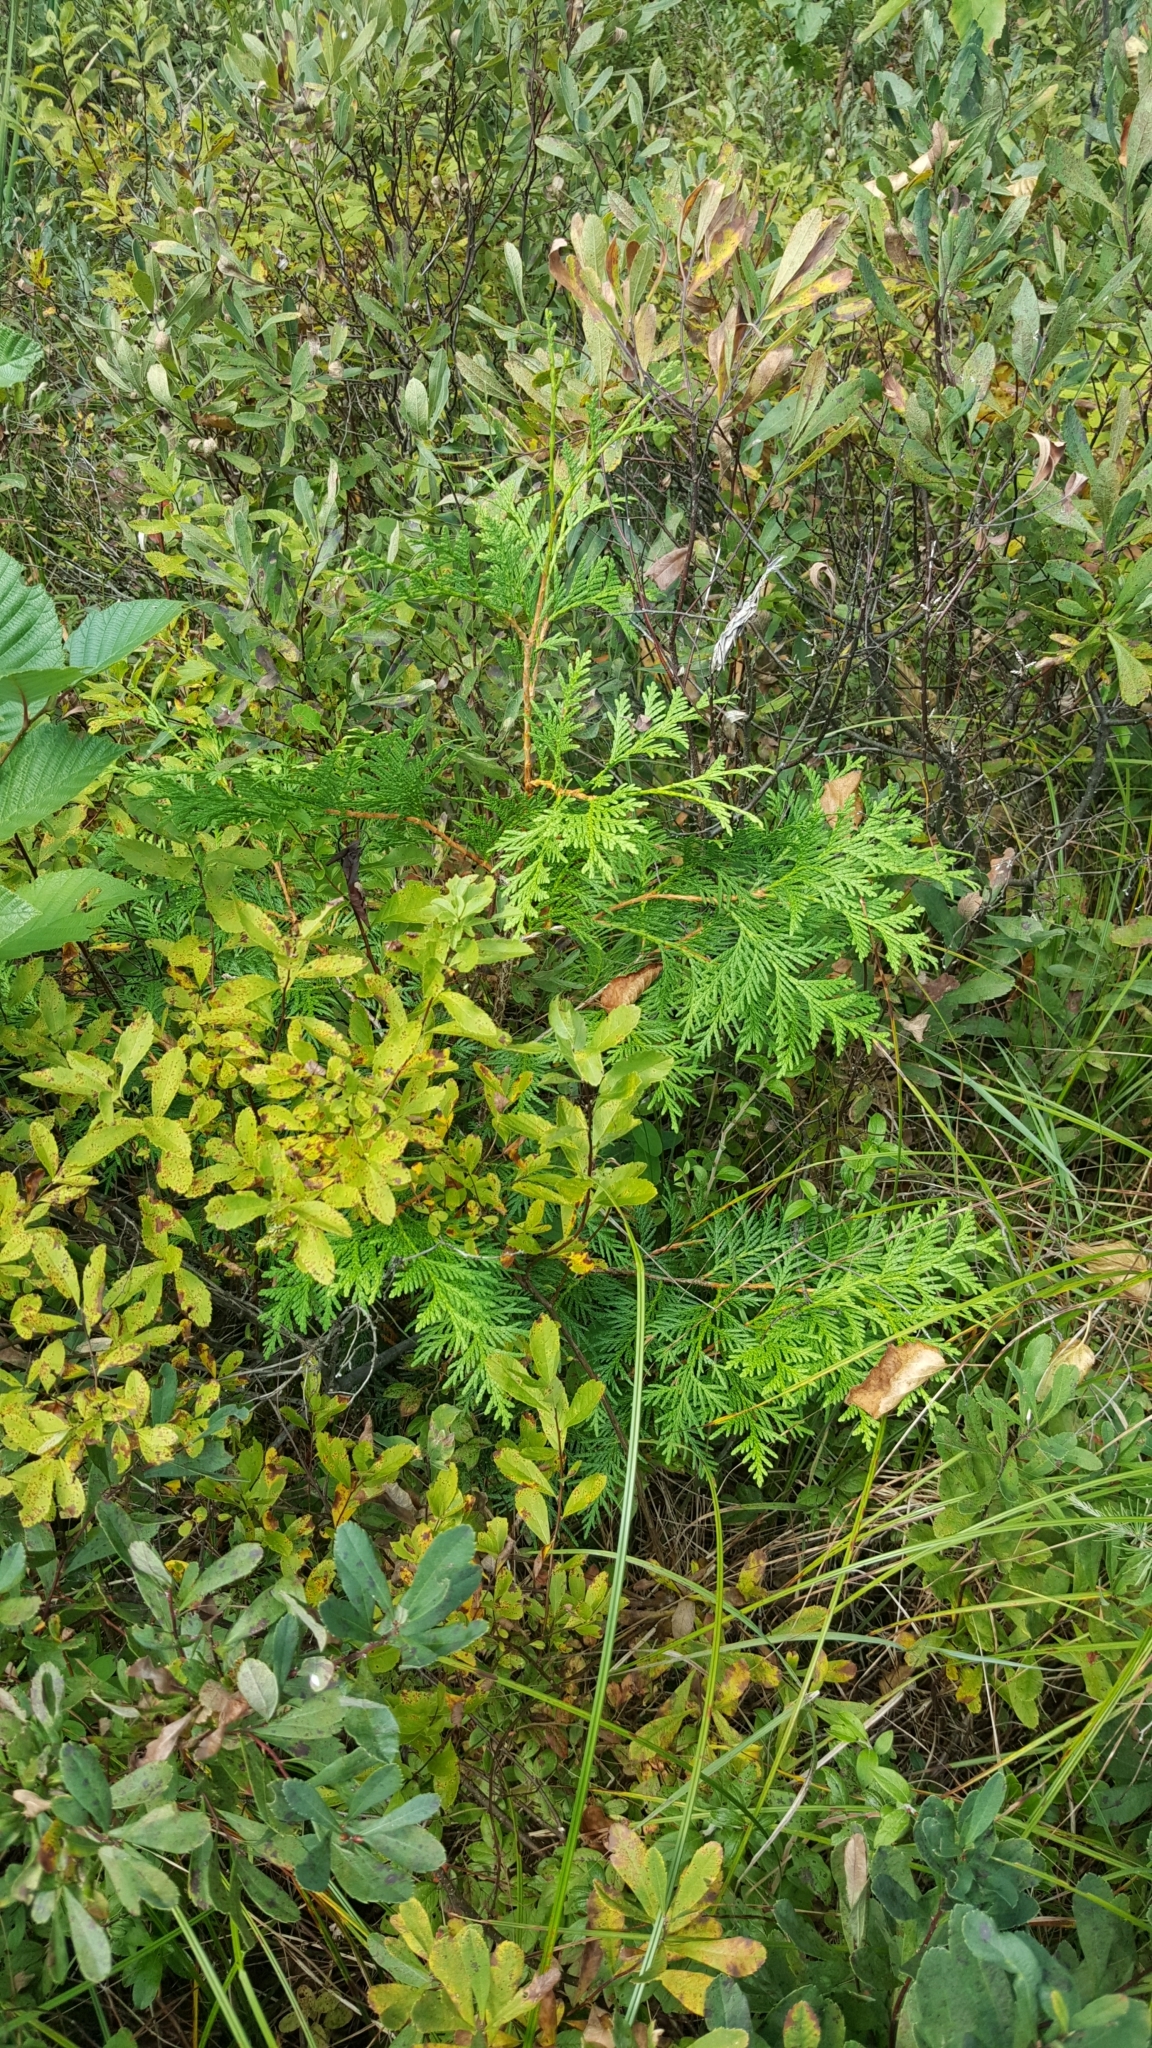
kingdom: Plantae
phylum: Tracheophyta
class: Pinopsida
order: Pinales
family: Cupressaceae
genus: Thuja
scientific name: Thuja occidentalis
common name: Northern white-cedar
